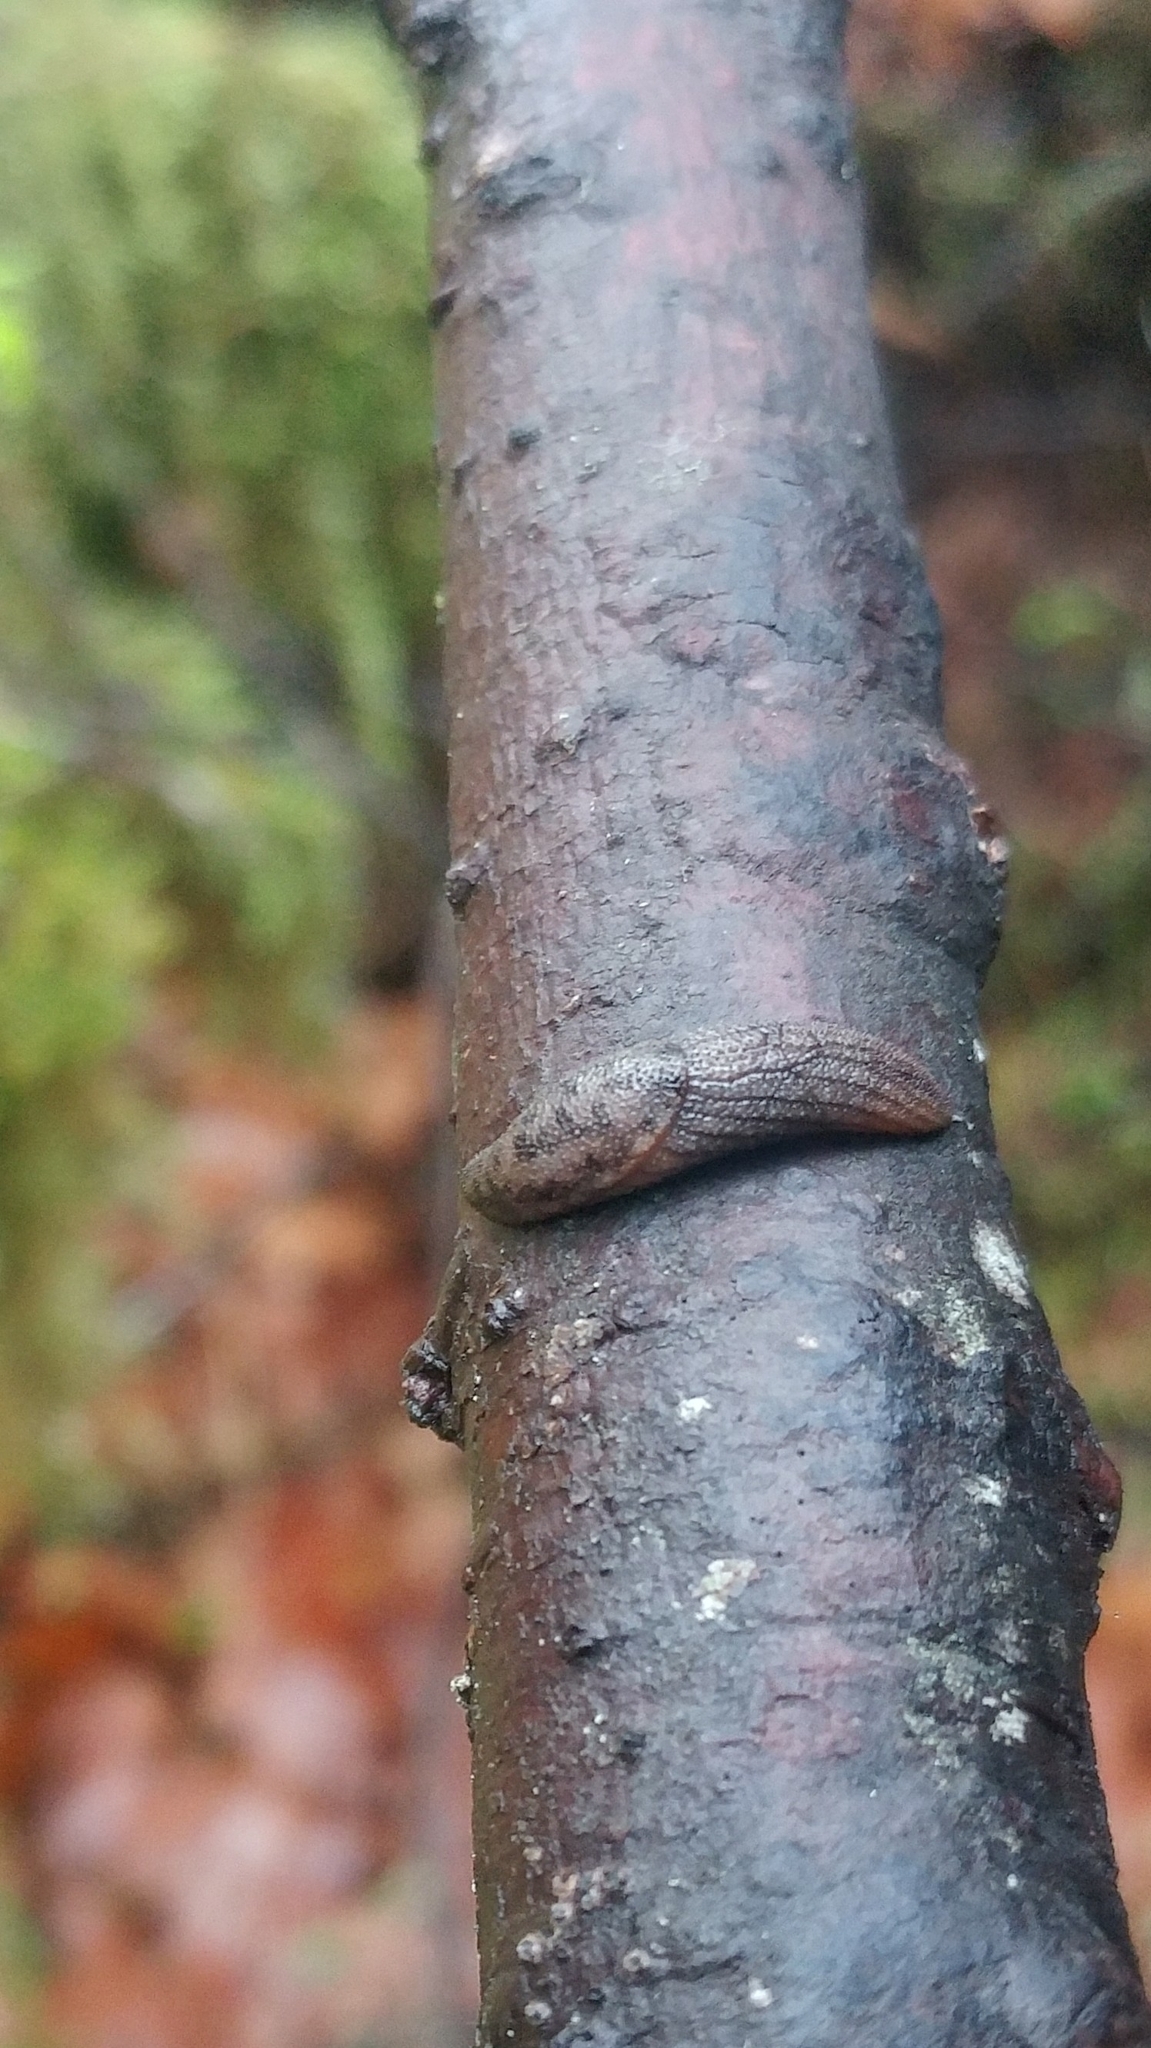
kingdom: Animalia
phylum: Mollusca
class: Gastropoda
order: Stylommatophora
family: Ariolimacidae
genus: Prophysaon
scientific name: Prophysaon dubium
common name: Papillose taildropper
